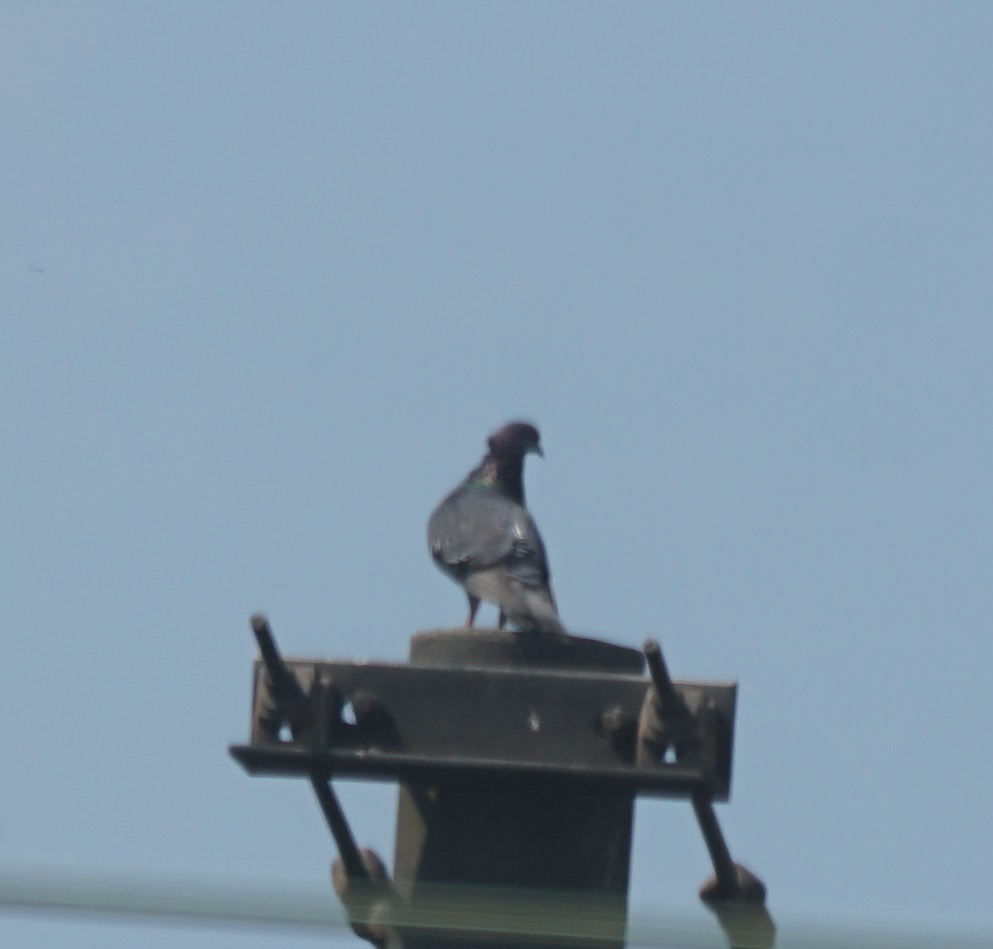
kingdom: Animalia
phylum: Chordata
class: Aves
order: Columbiformes
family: Columbidae
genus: Columba
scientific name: Columba livia
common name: Rock pigeon
